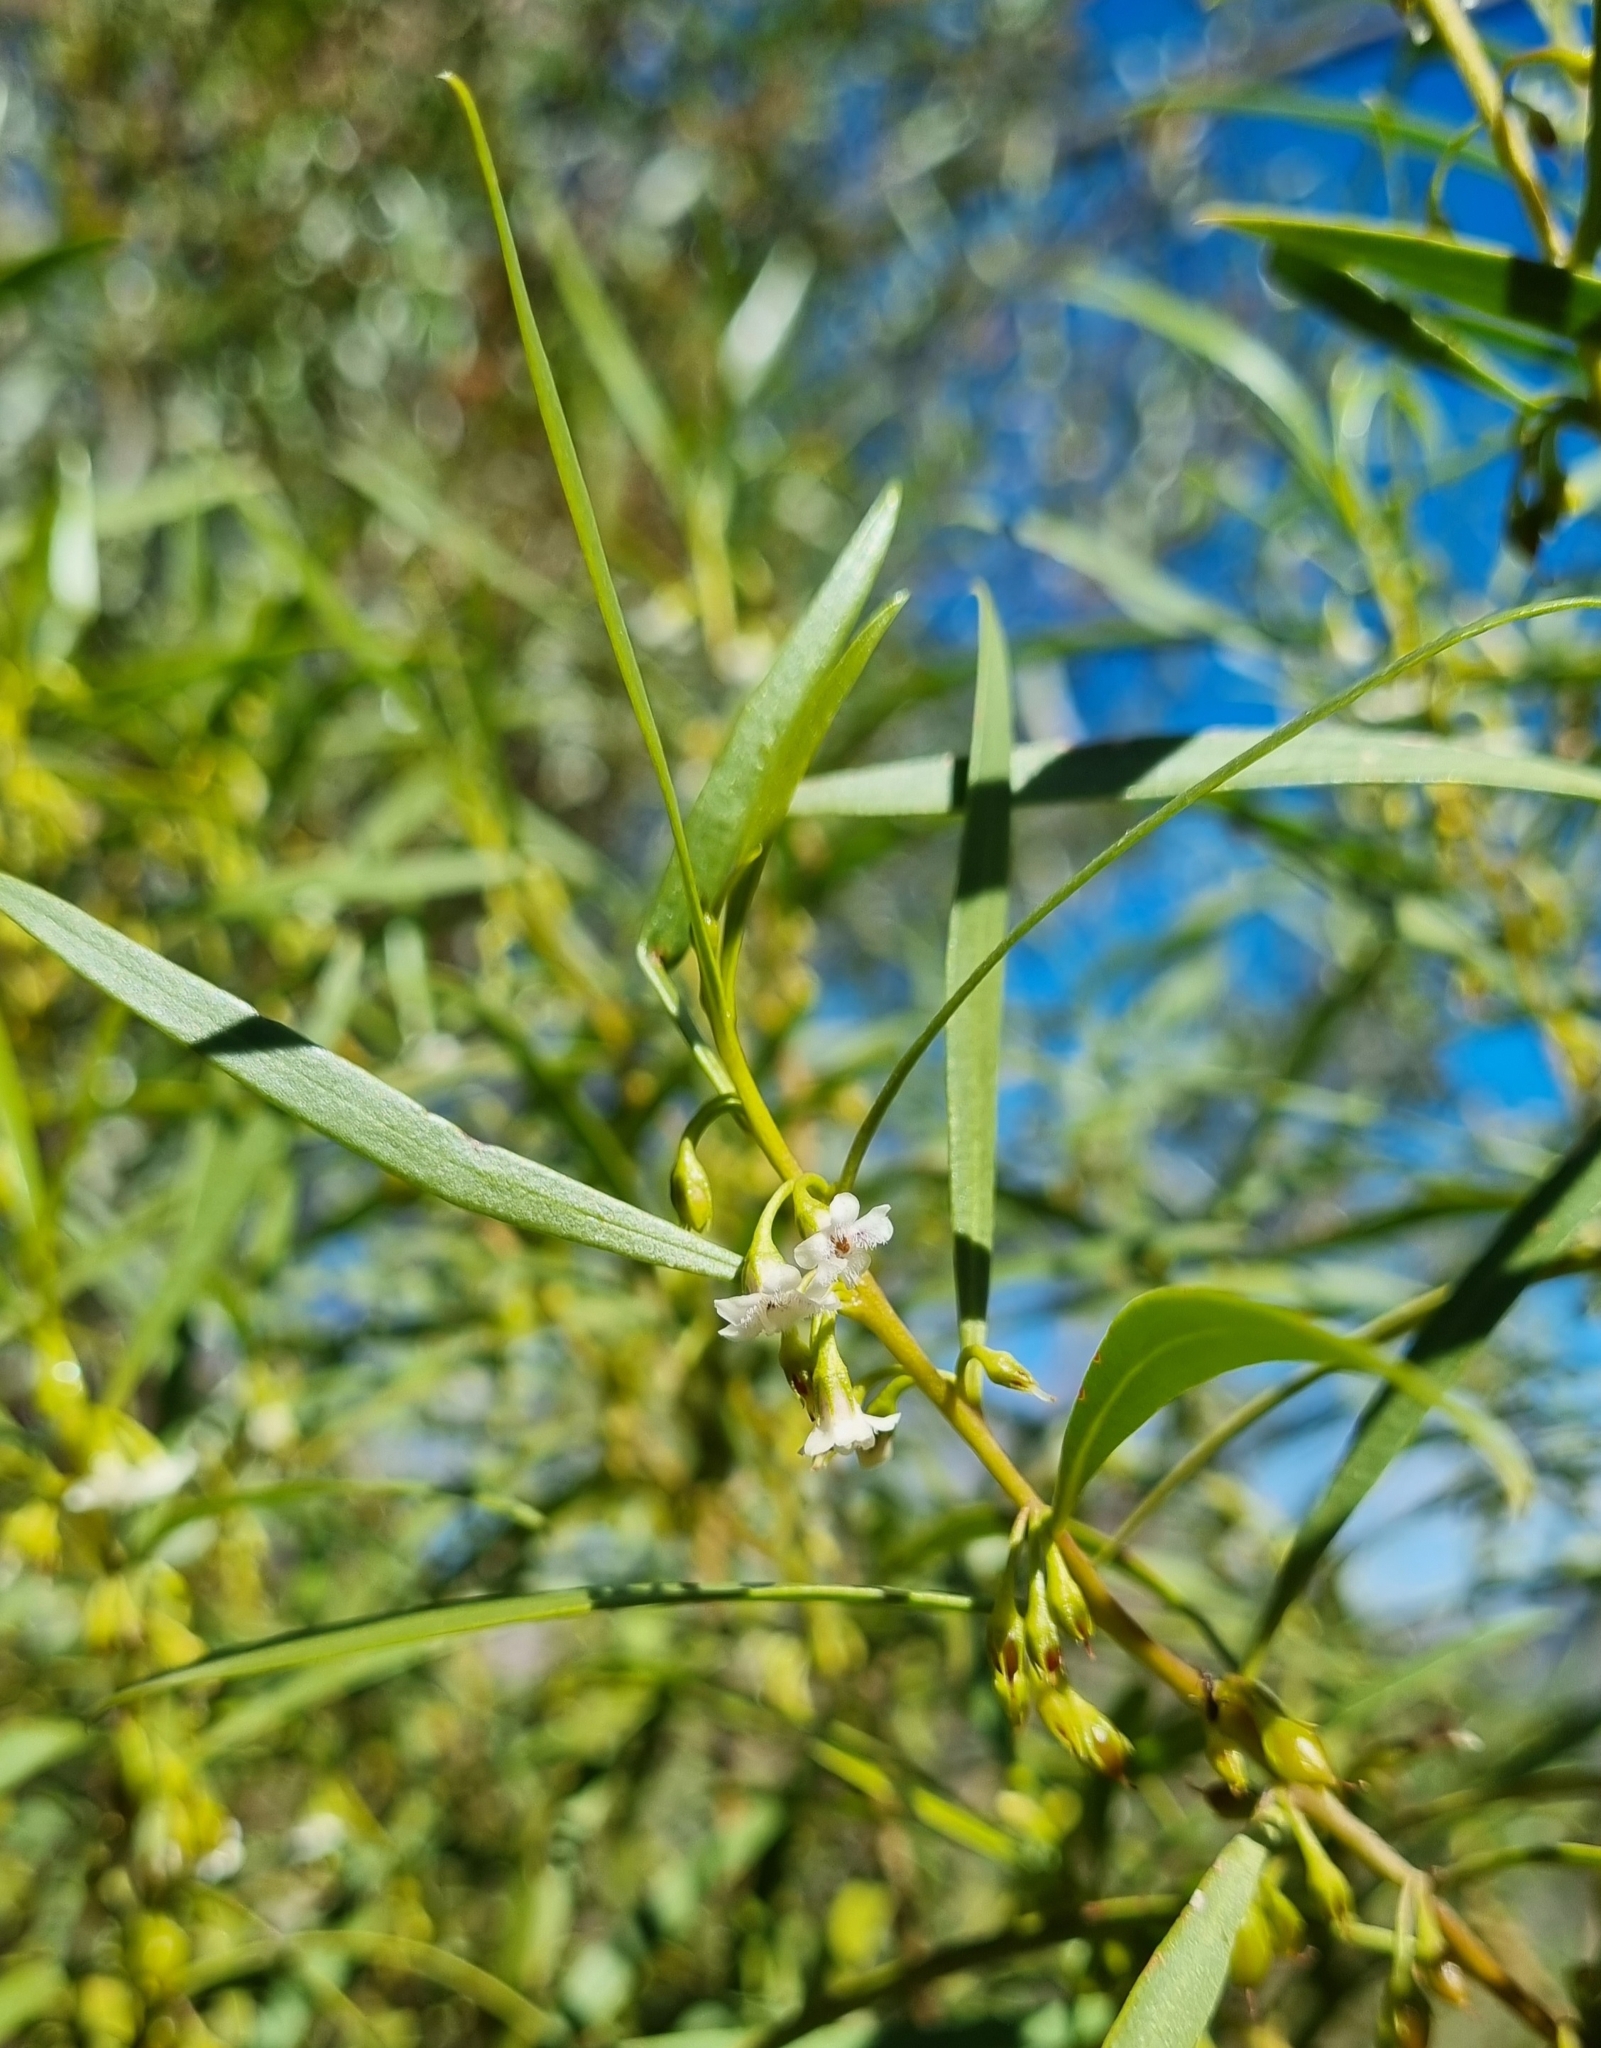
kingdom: Plantae
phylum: Tracheophyta
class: Magnoliopsida
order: Lamiales
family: Scrophulariaceae
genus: Eremophila
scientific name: Eremophila deserti
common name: Ellangowan-poisonbush
